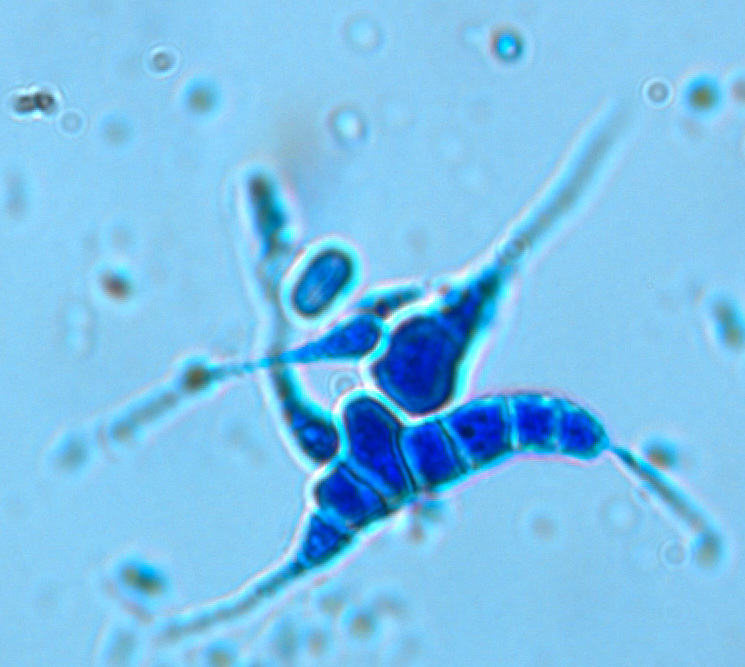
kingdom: Fungi
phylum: Ascomycota
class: Sordariomycetes
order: Hypocreales
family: Nectriaceae
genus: Campylospora
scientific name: Campylospora filicladia
